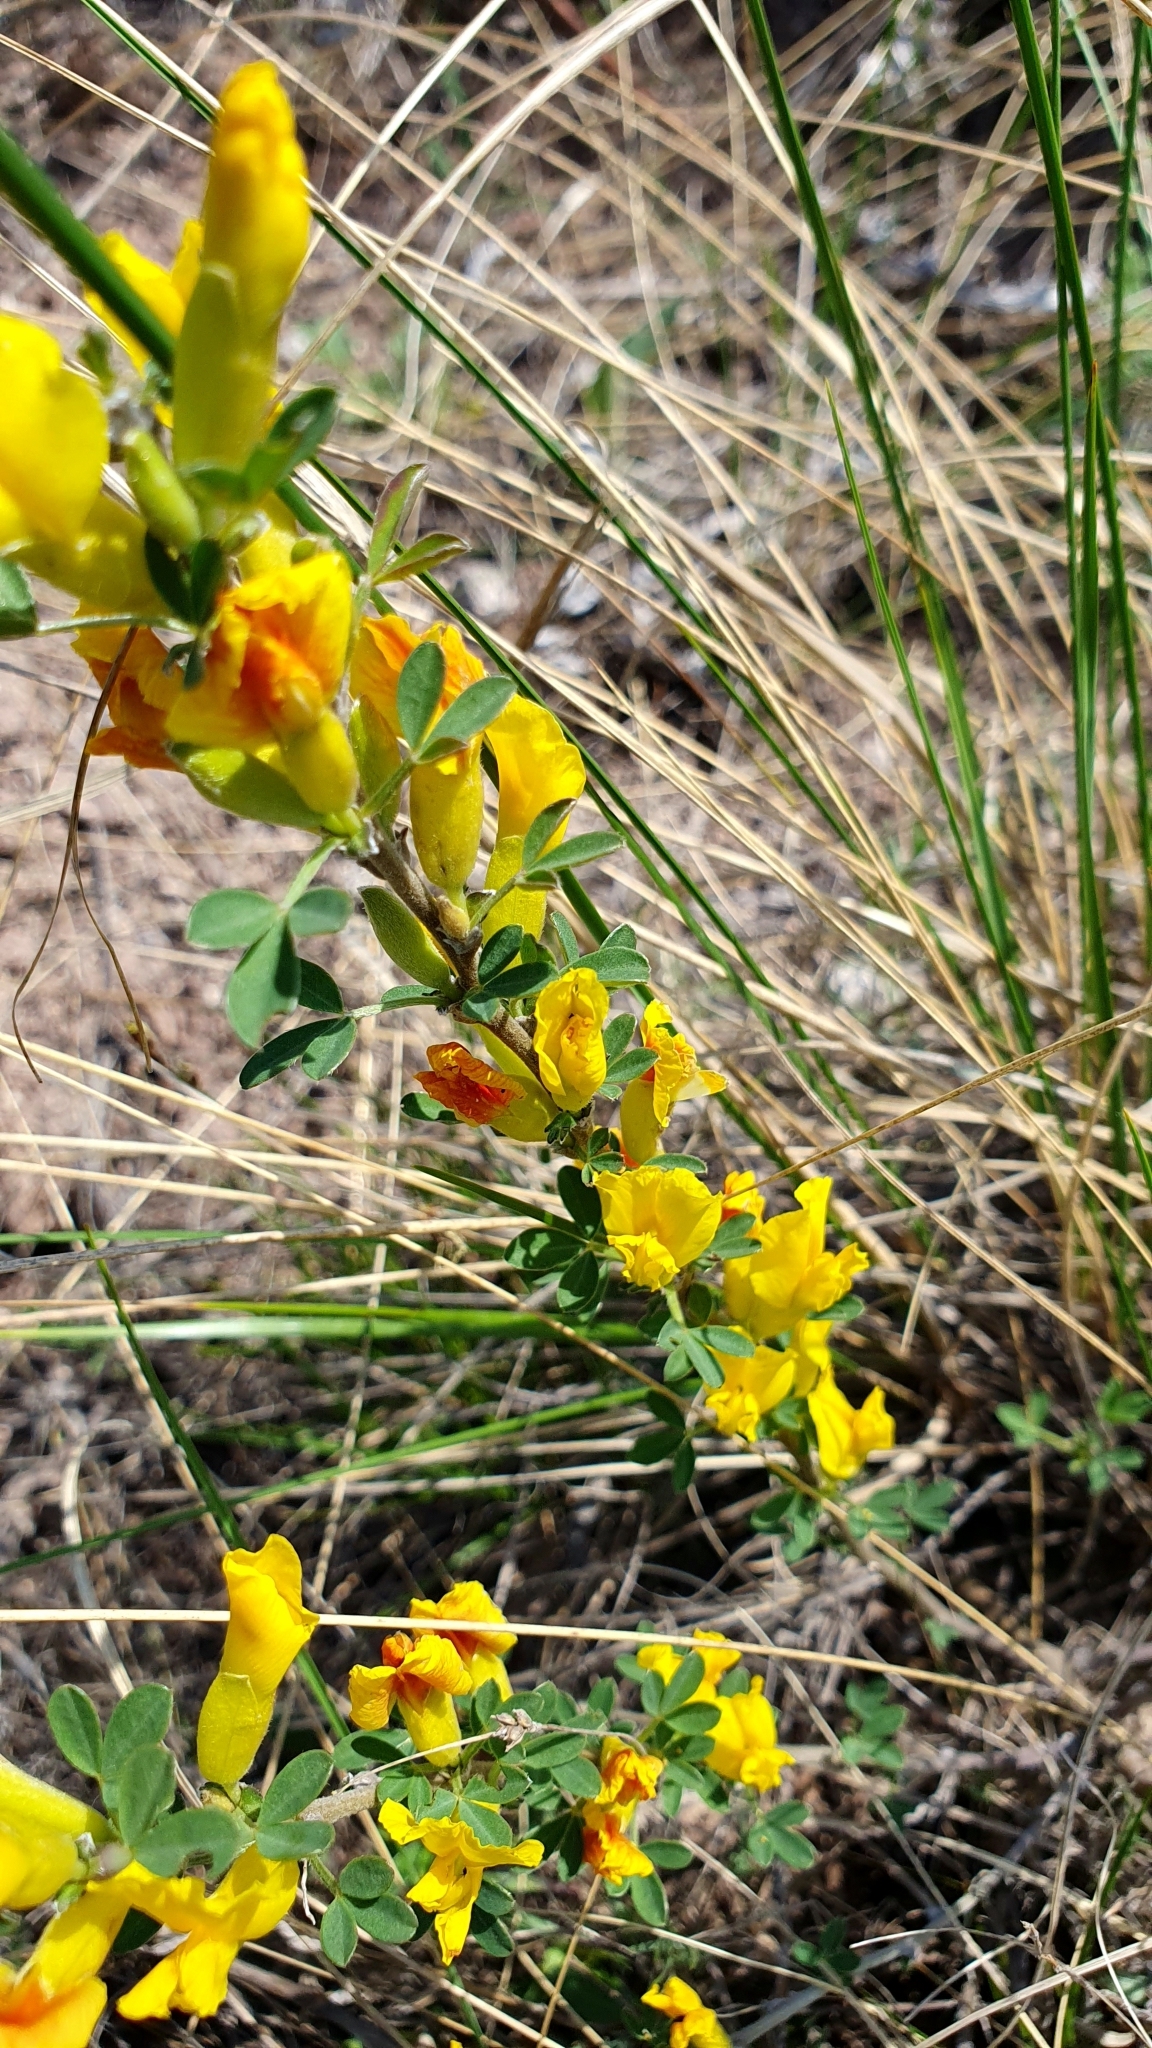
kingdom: Plantae
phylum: Tracheophyta
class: Magnoliopsida
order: Fabales
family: Fabaceae
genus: Chamaecytisus
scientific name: Chamaecytisus ruthenicus
